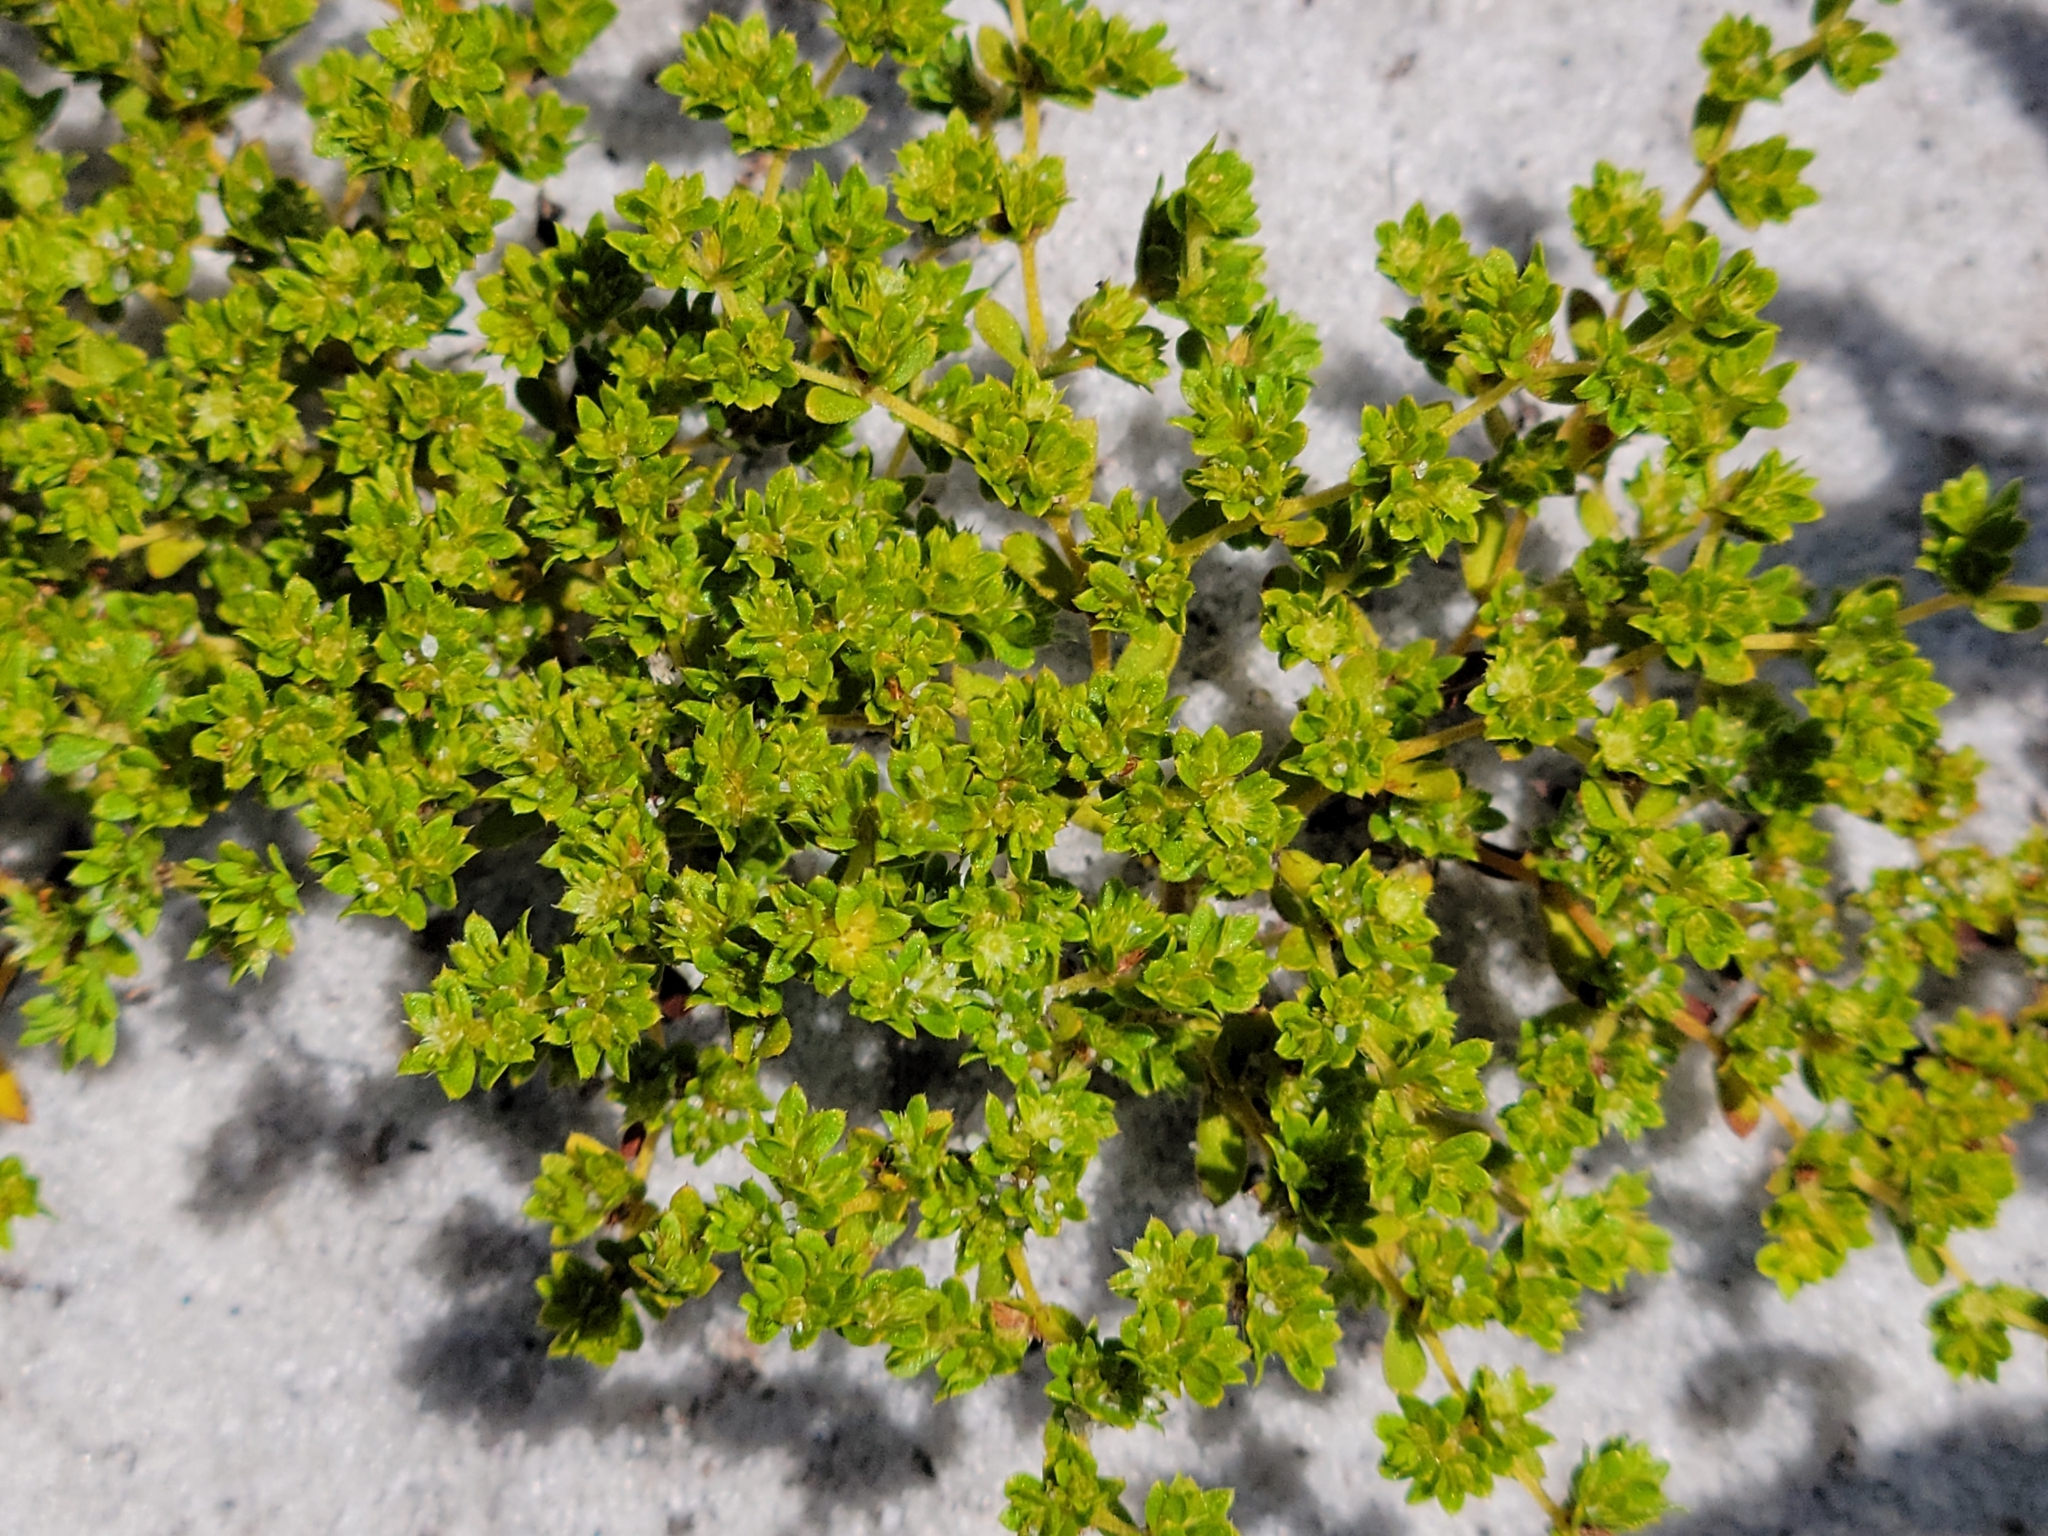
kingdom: Plantae
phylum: Tracheophyta
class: Magnoliopsida
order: Caryophyllales
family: Caryophyllaceae
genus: Paronychia
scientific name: Paronychia herniarioides
